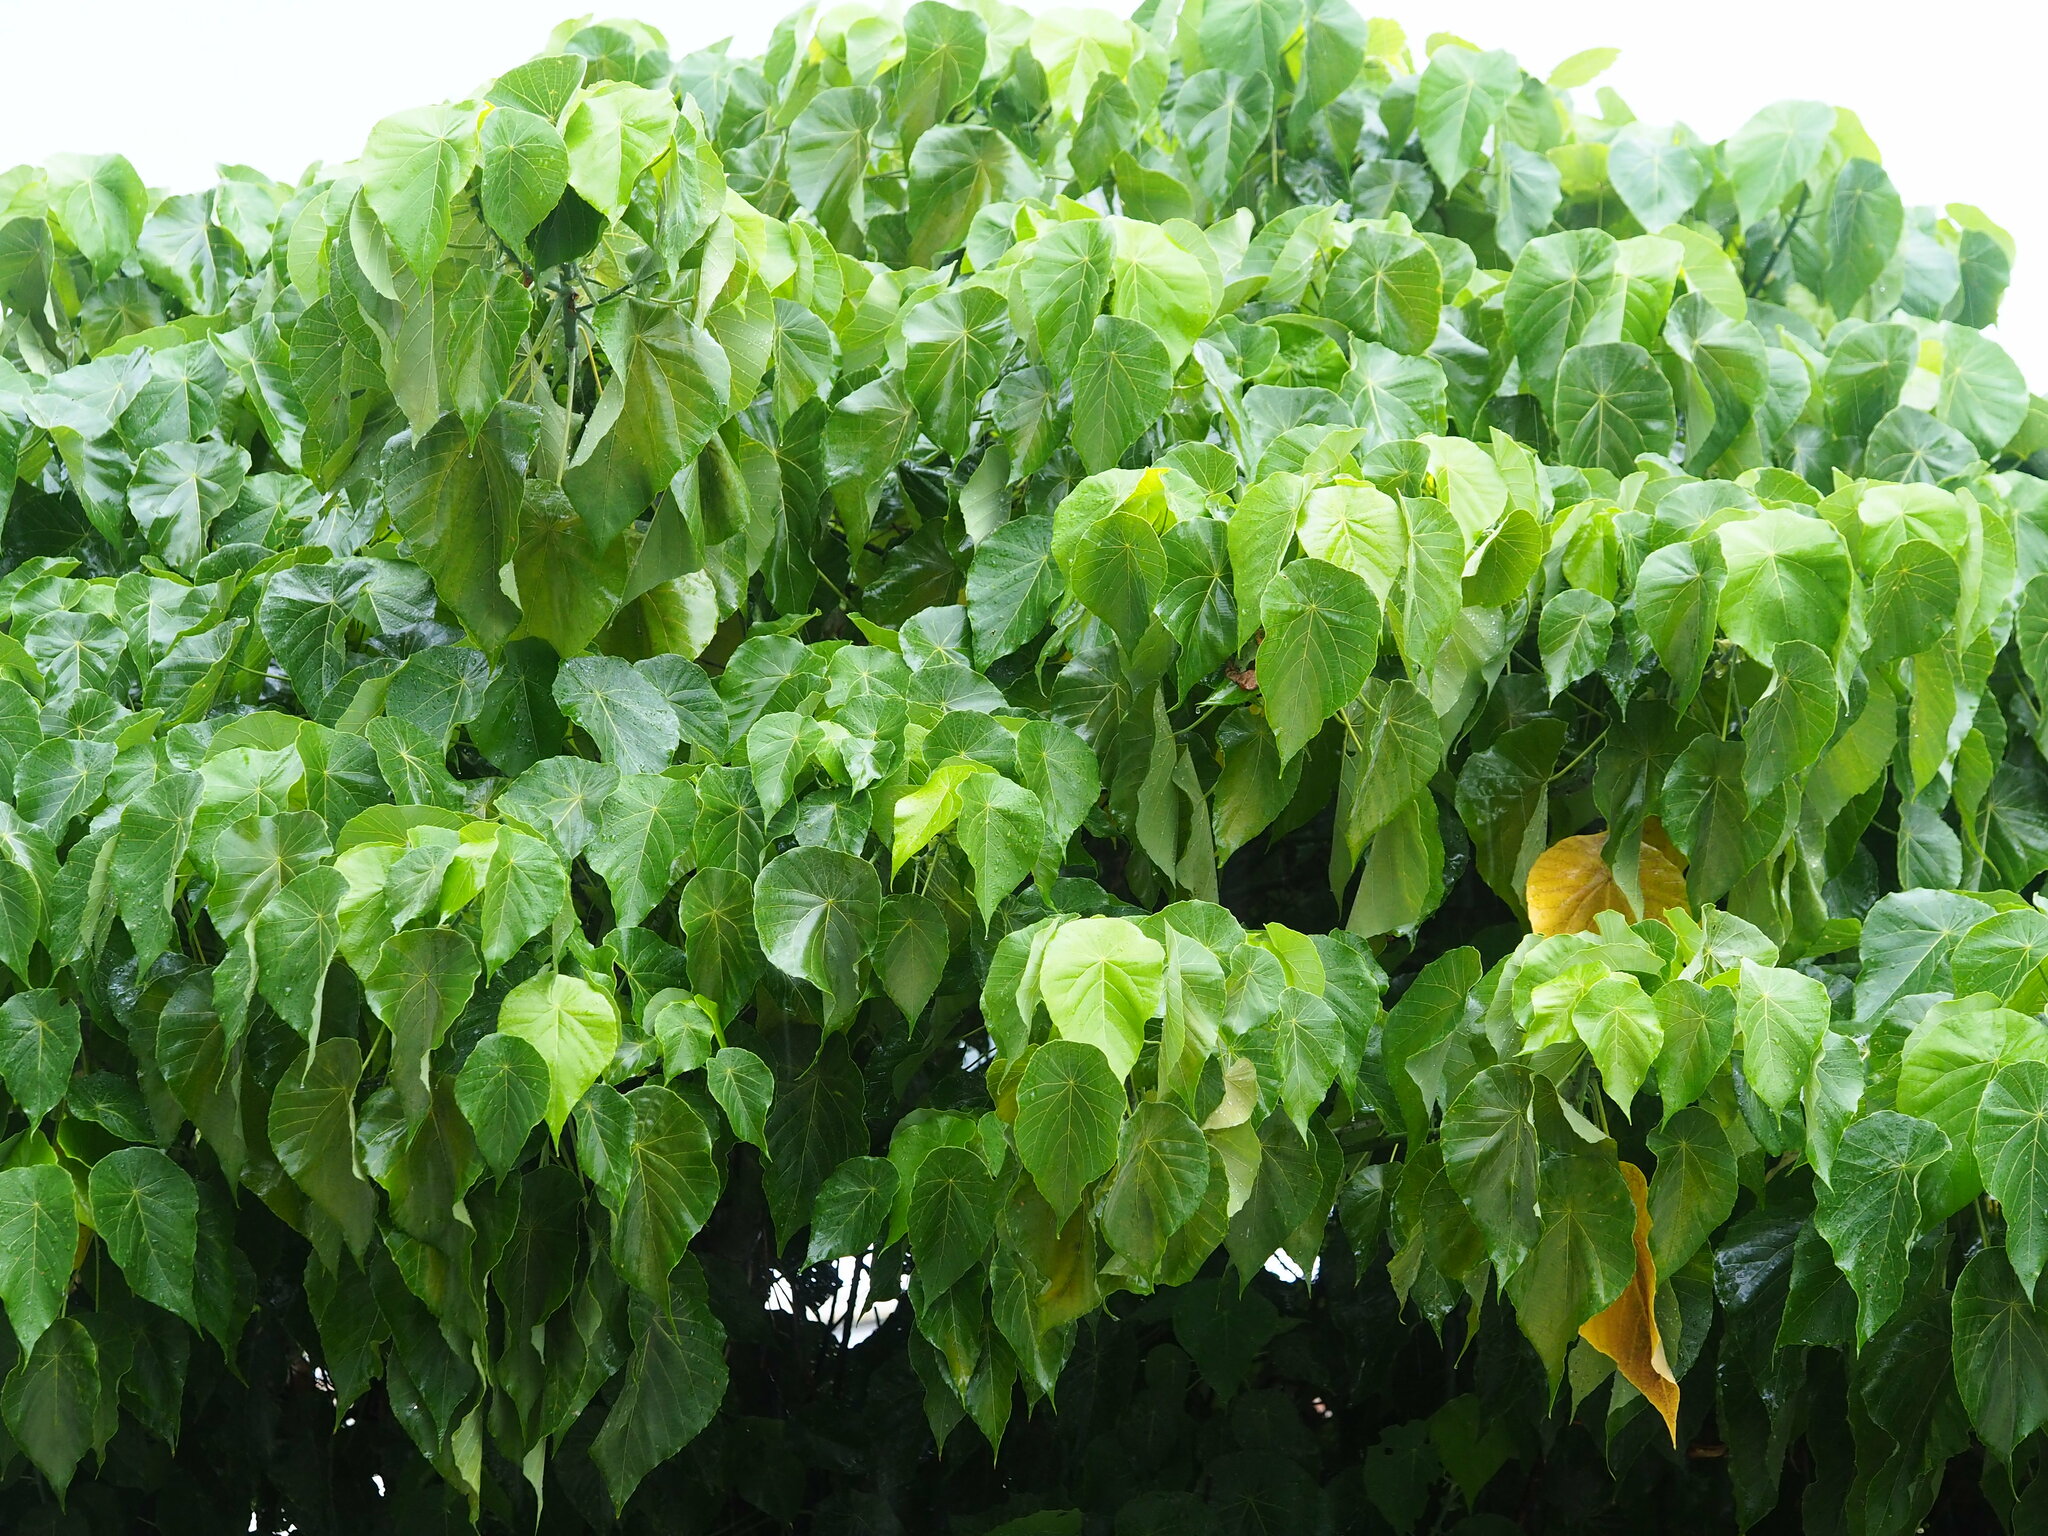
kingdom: Plantae
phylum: Tracheophyta
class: Magnoliopsida
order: Malpighiales
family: Euphorbiaceae
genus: Macaranga
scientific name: Macaranga tanarius
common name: Parasol leaf tree
